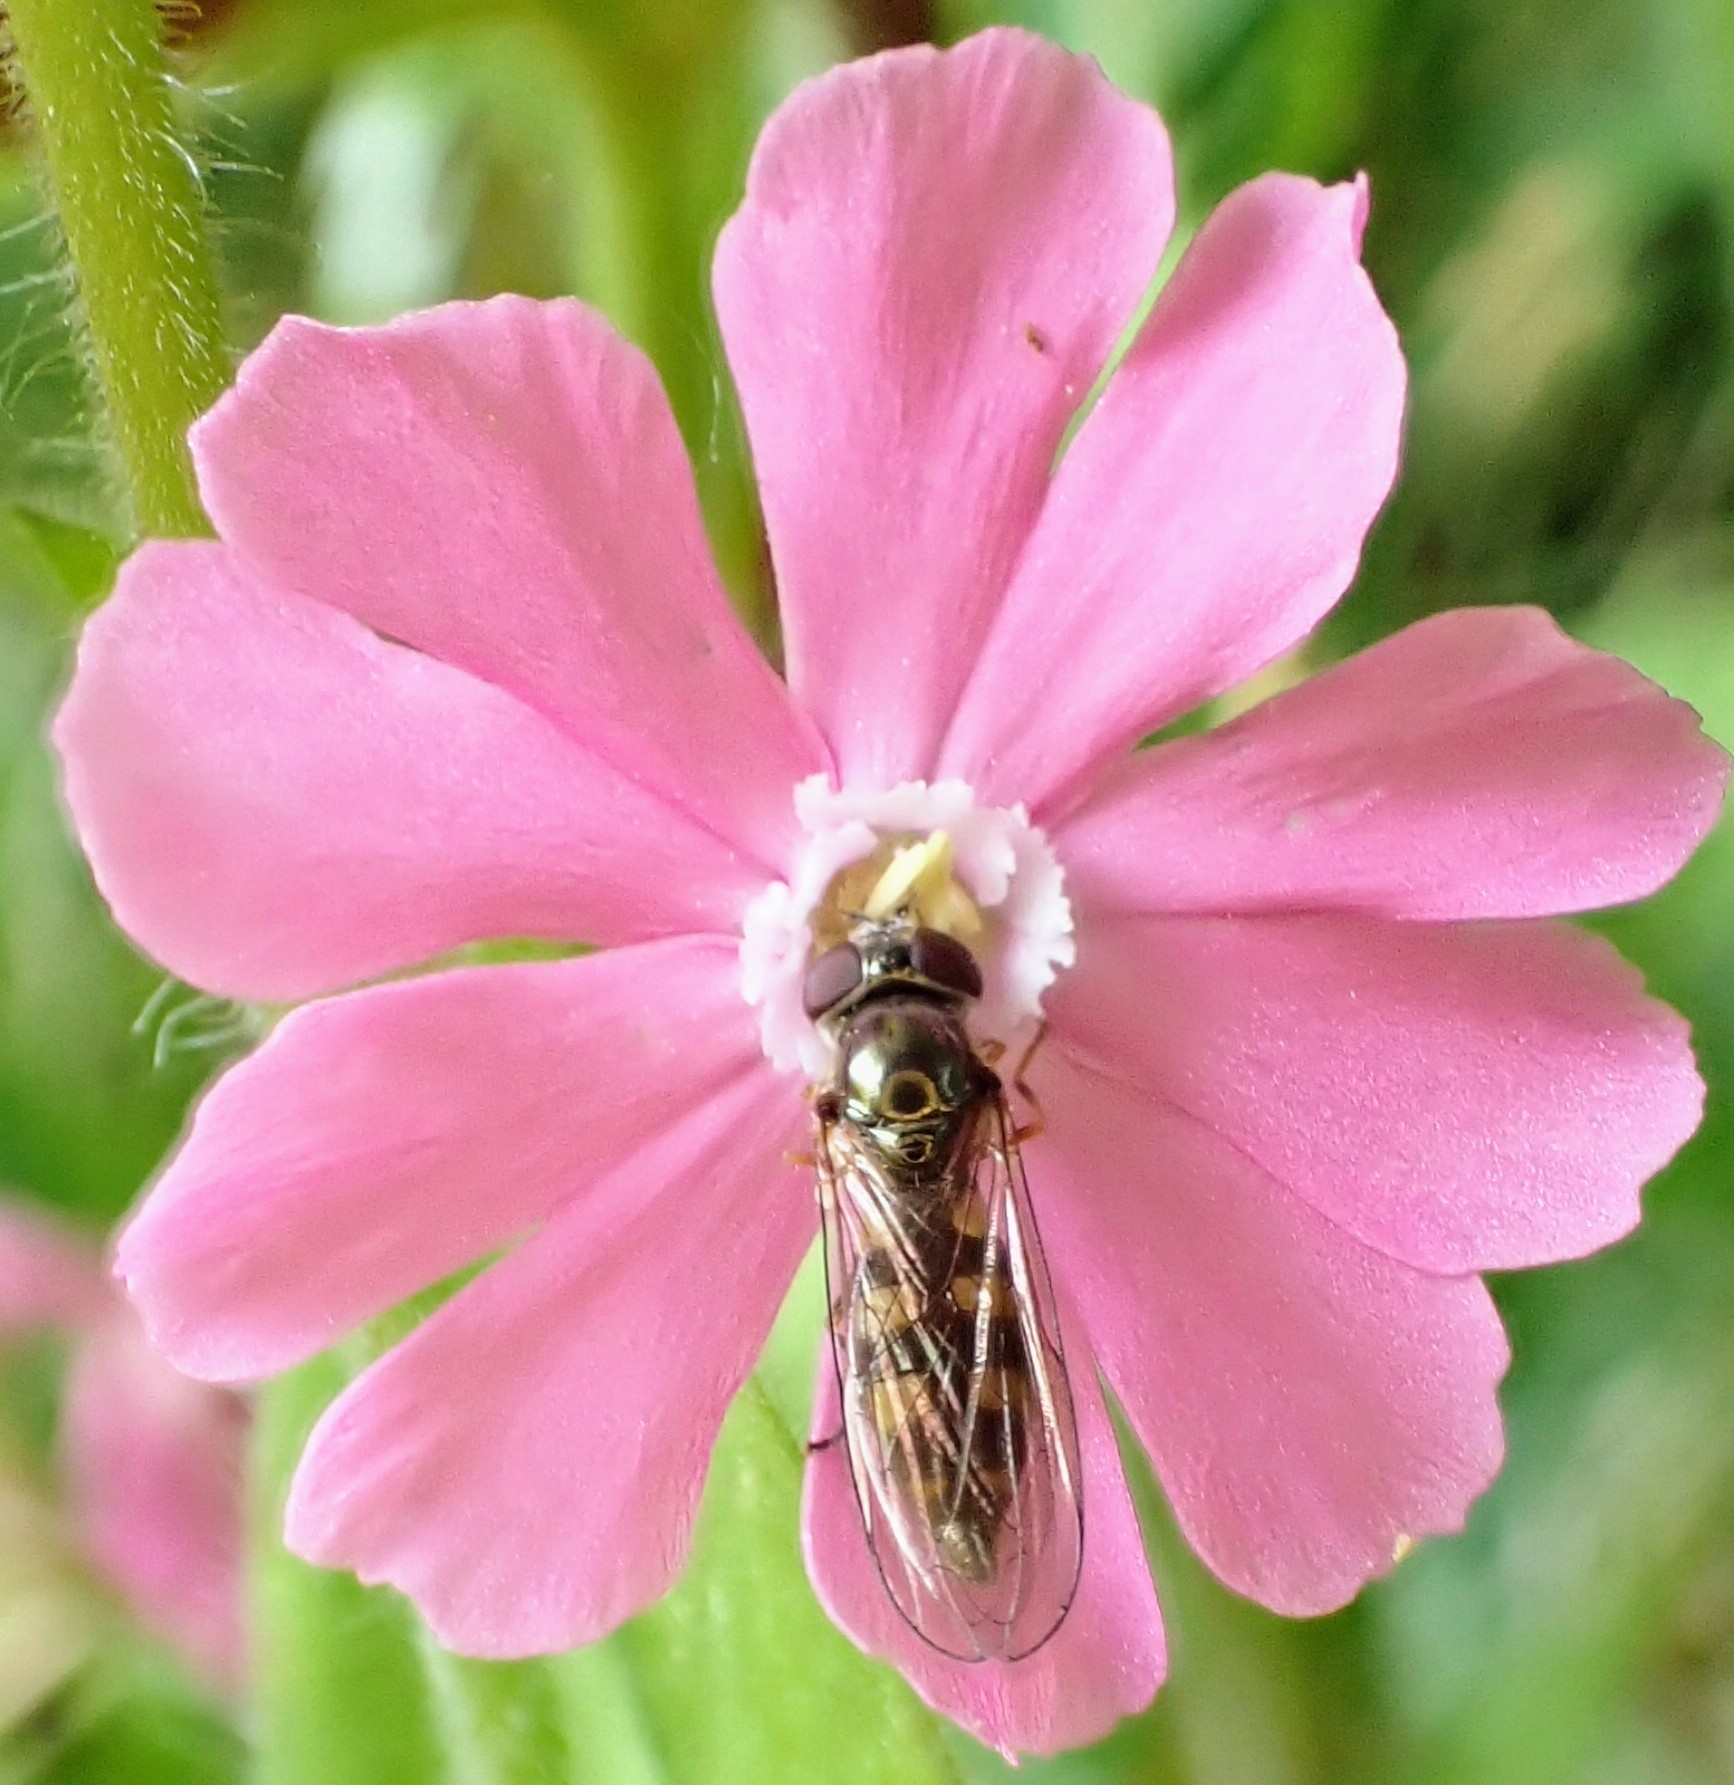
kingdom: Animalia
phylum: Arthropoda
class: Insecta
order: Diptera
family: Syrphidae
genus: Platycheirus
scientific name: Platycheirus peltatus
